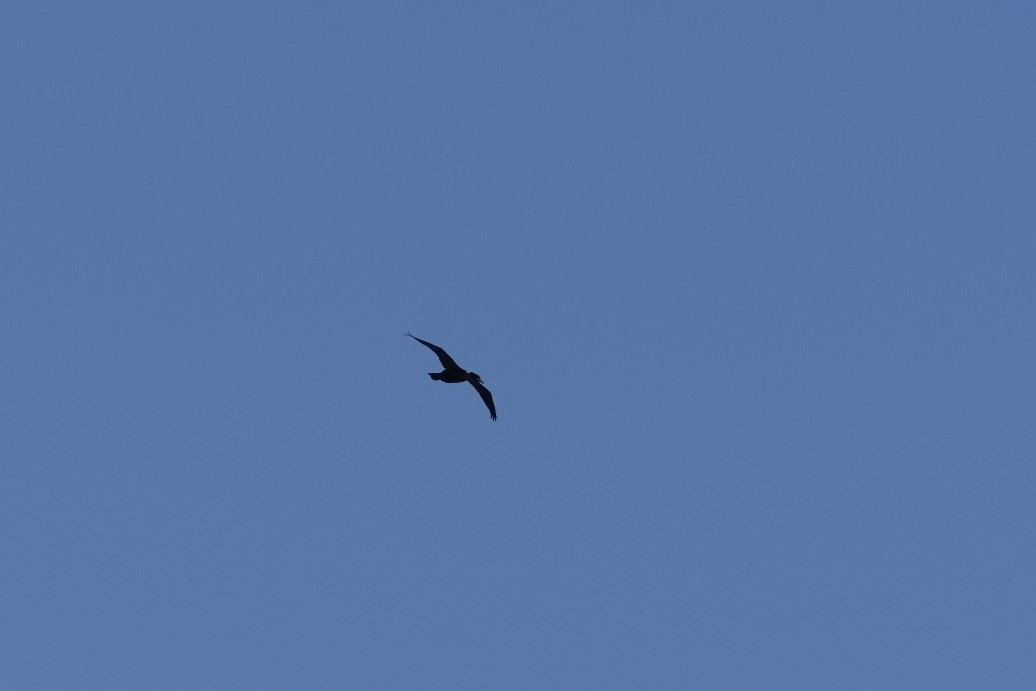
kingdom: Animalia
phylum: Chordata
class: Aves
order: Suliformes
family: Phalacrocoracidae
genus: Phalacrocorax
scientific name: Phalacrocorax carbo
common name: Great cormorant
